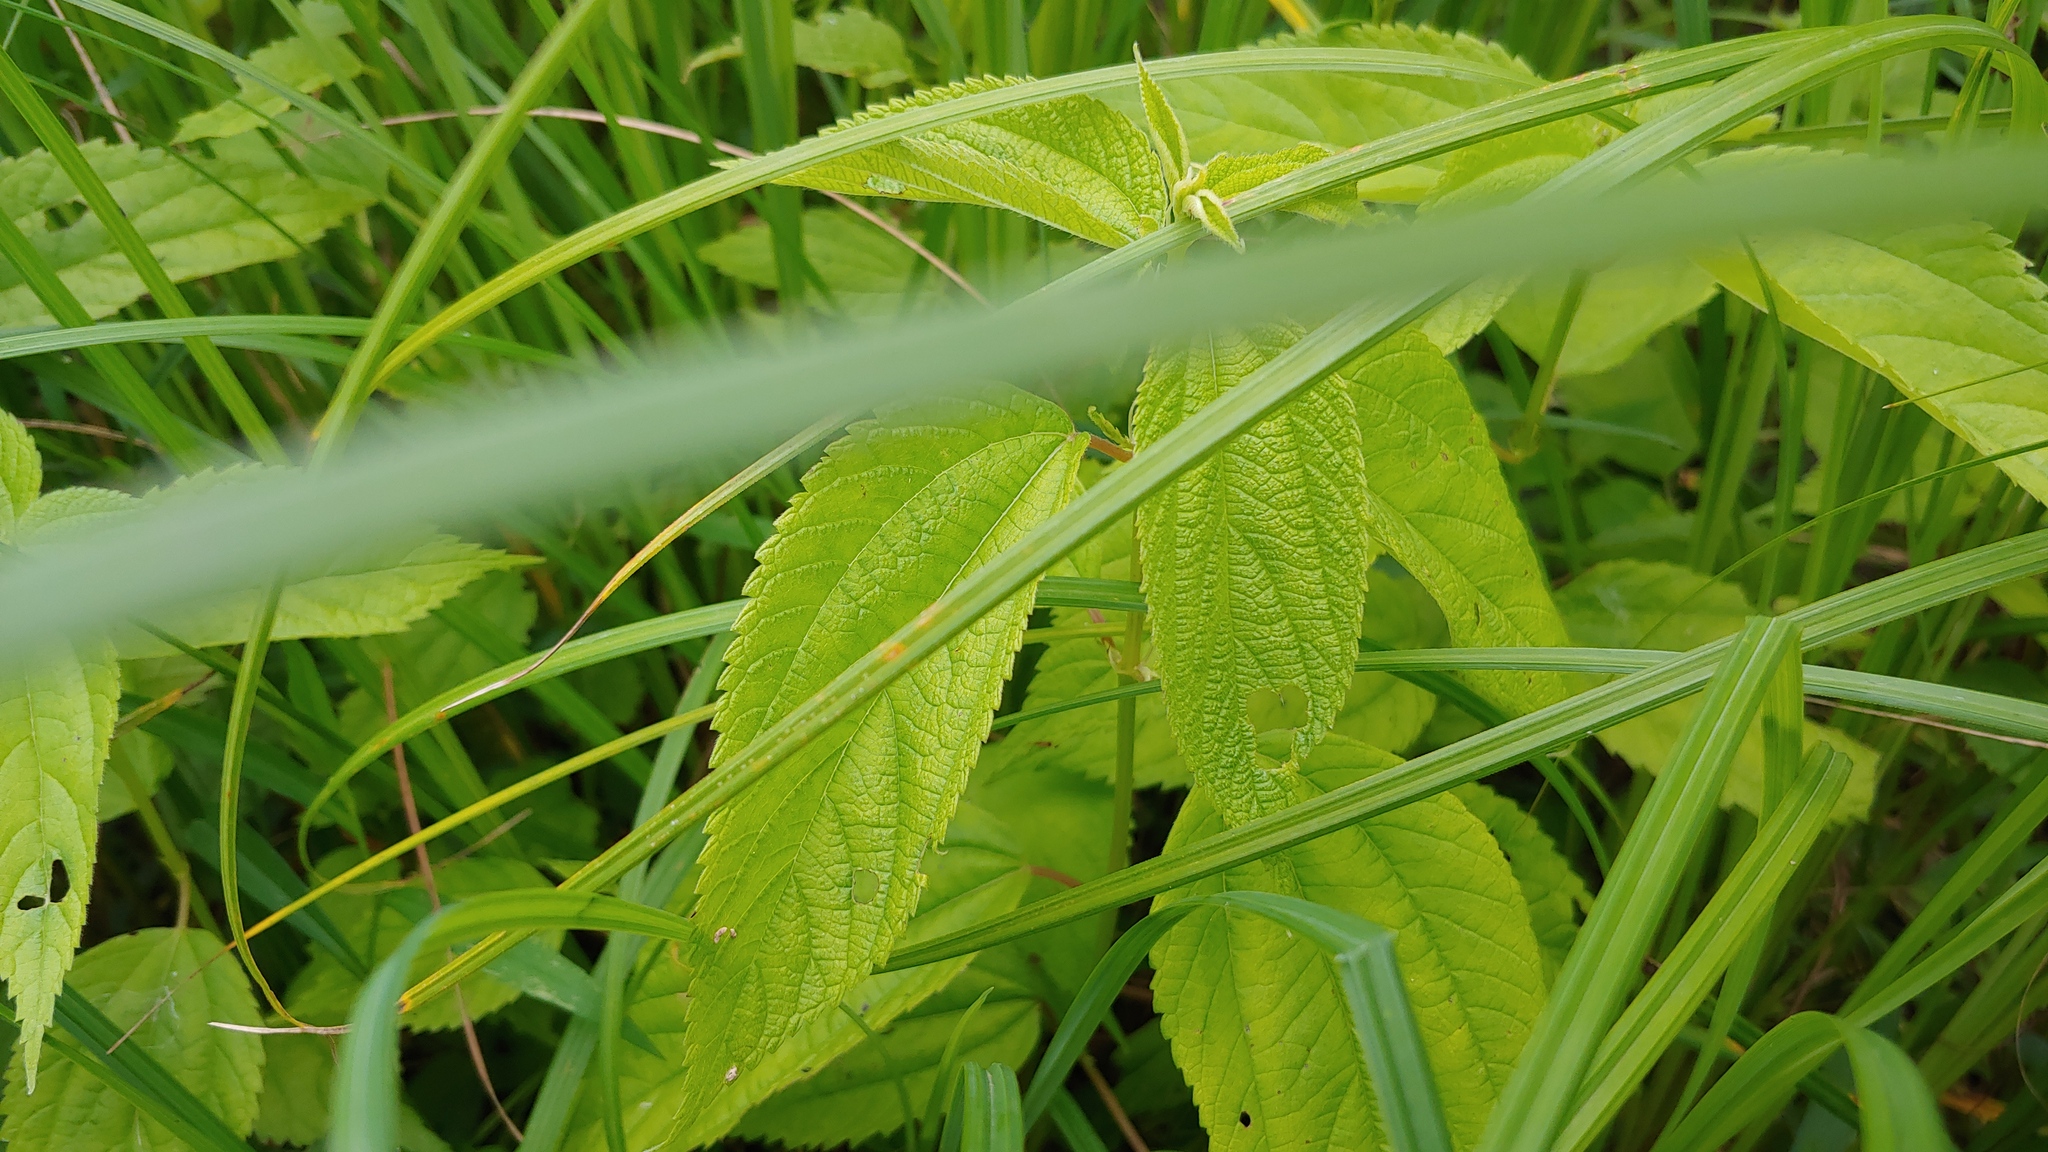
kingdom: Plantae
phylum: Tracheophyta
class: Magnoliopsida
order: Rosales
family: Urticaceae
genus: Boehmeria
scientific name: Boehmeria cylindrica
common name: Bog-hemp
